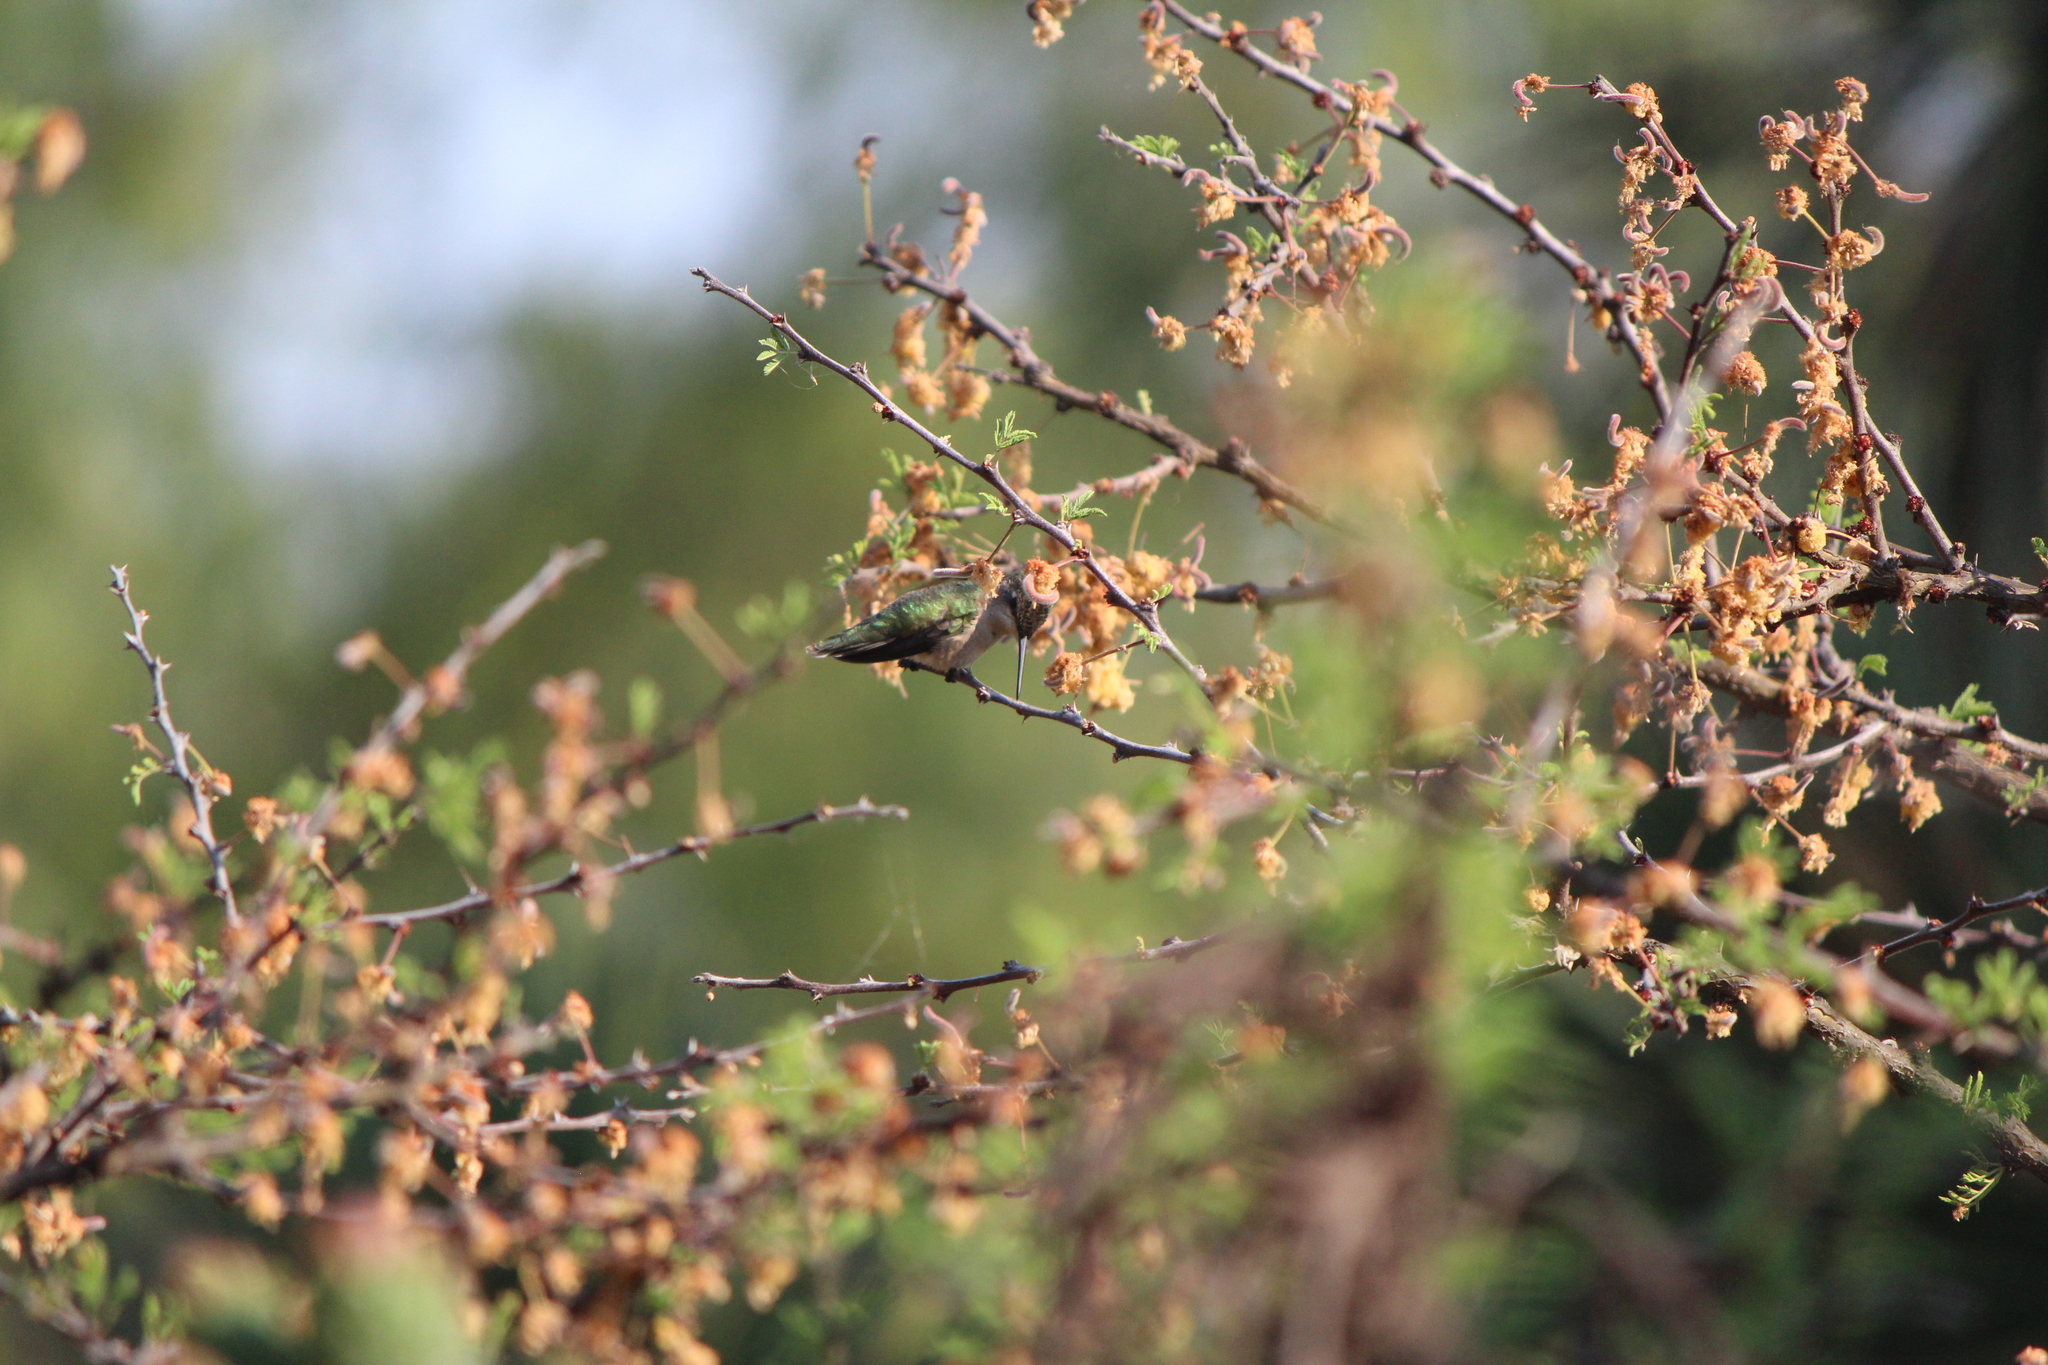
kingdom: Animalia
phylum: Chordata
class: Aves
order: Apodiformes
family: Trochilidae
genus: Archilochus
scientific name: Archilochus colubris
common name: Ruby-throated hummingbird
